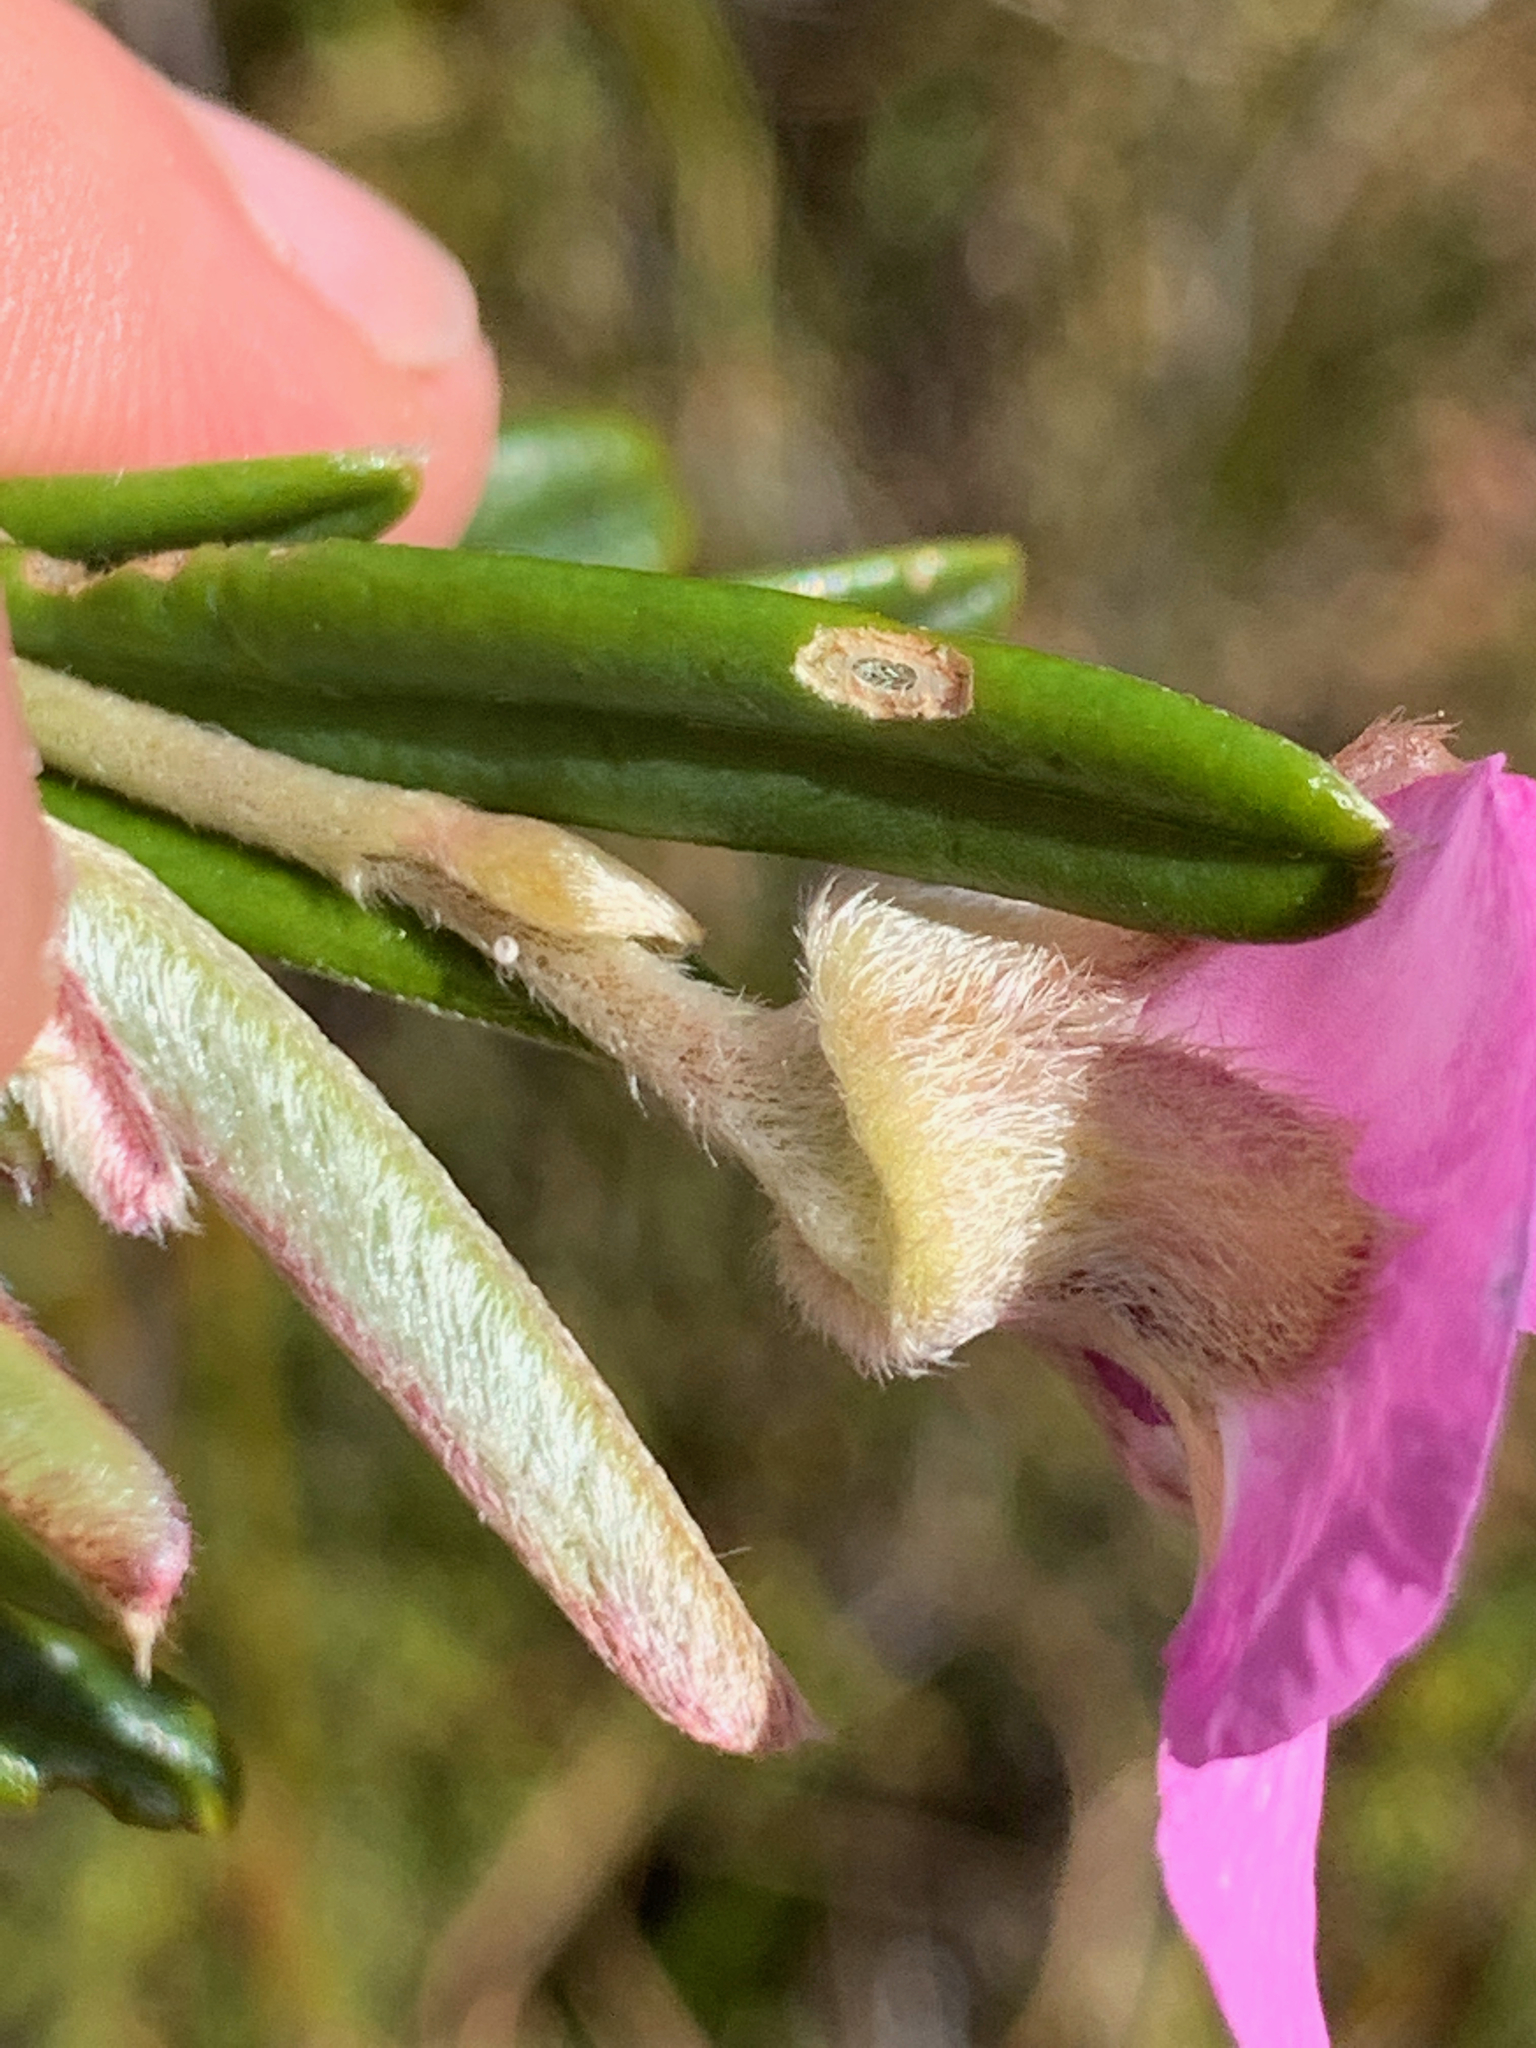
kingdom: Plantae
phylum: Tracheophyta
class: Magnoliopsida
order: Fabales
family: Fabaceae
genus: Podalyria
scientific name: Podalyria oleifolia
